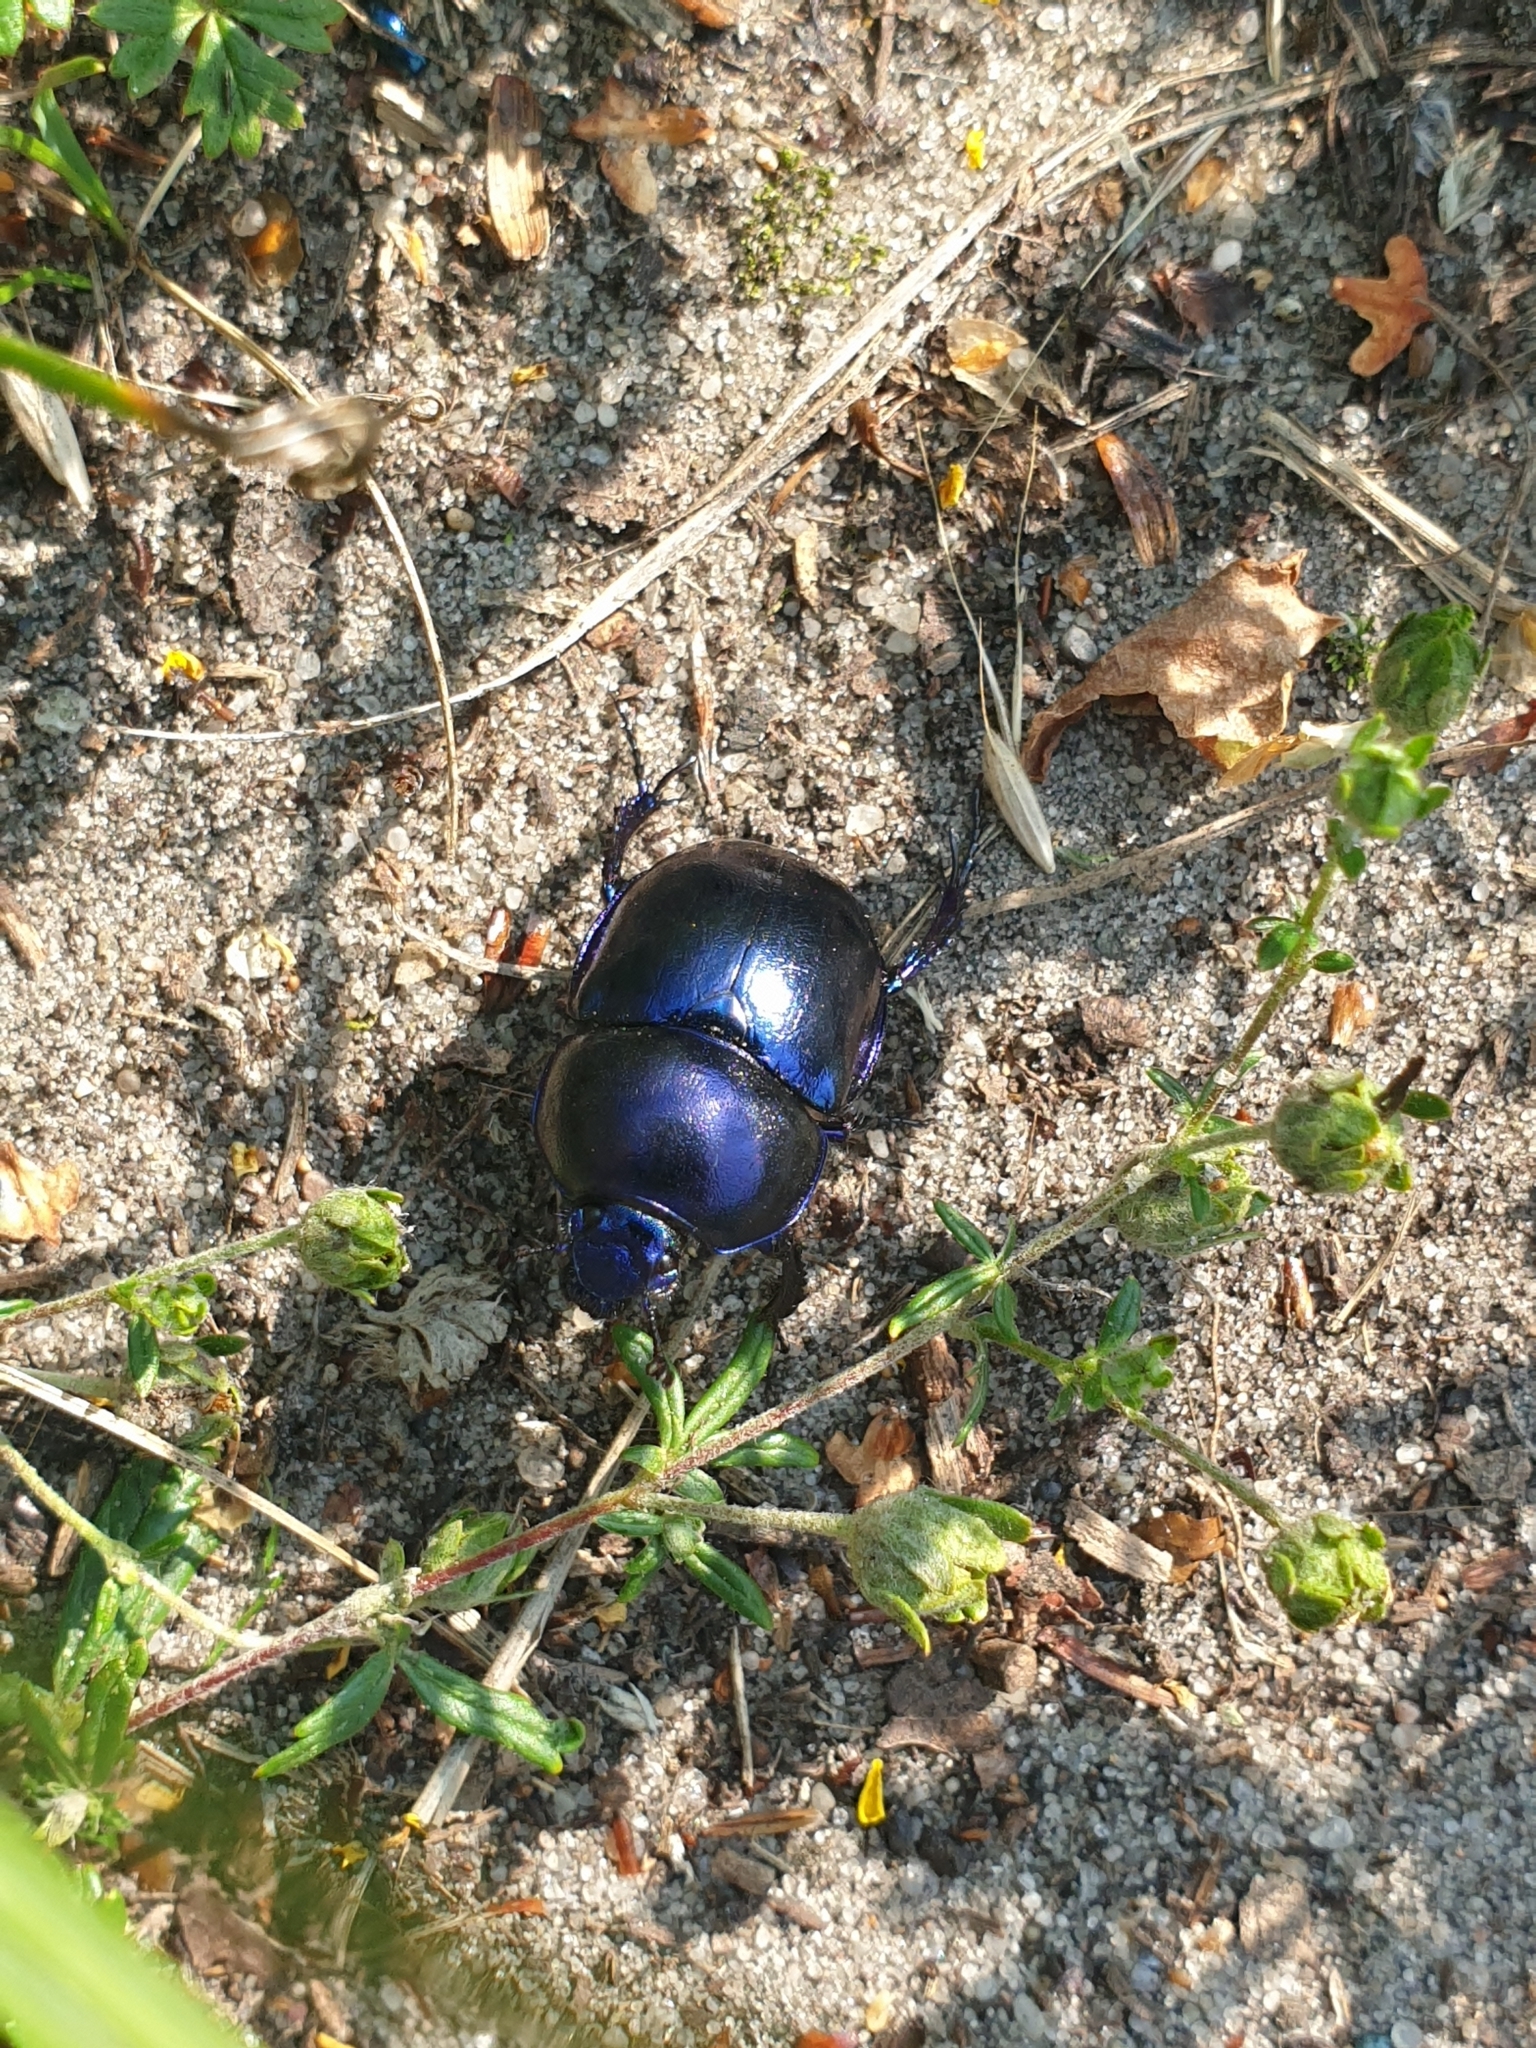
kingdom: Animalia
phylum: Arthropoda
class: Insecta
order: Coleoptera
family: Geotrupidae
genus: Trypocopris
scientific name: Trypocopris vernalis
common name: Spring dumbledor
